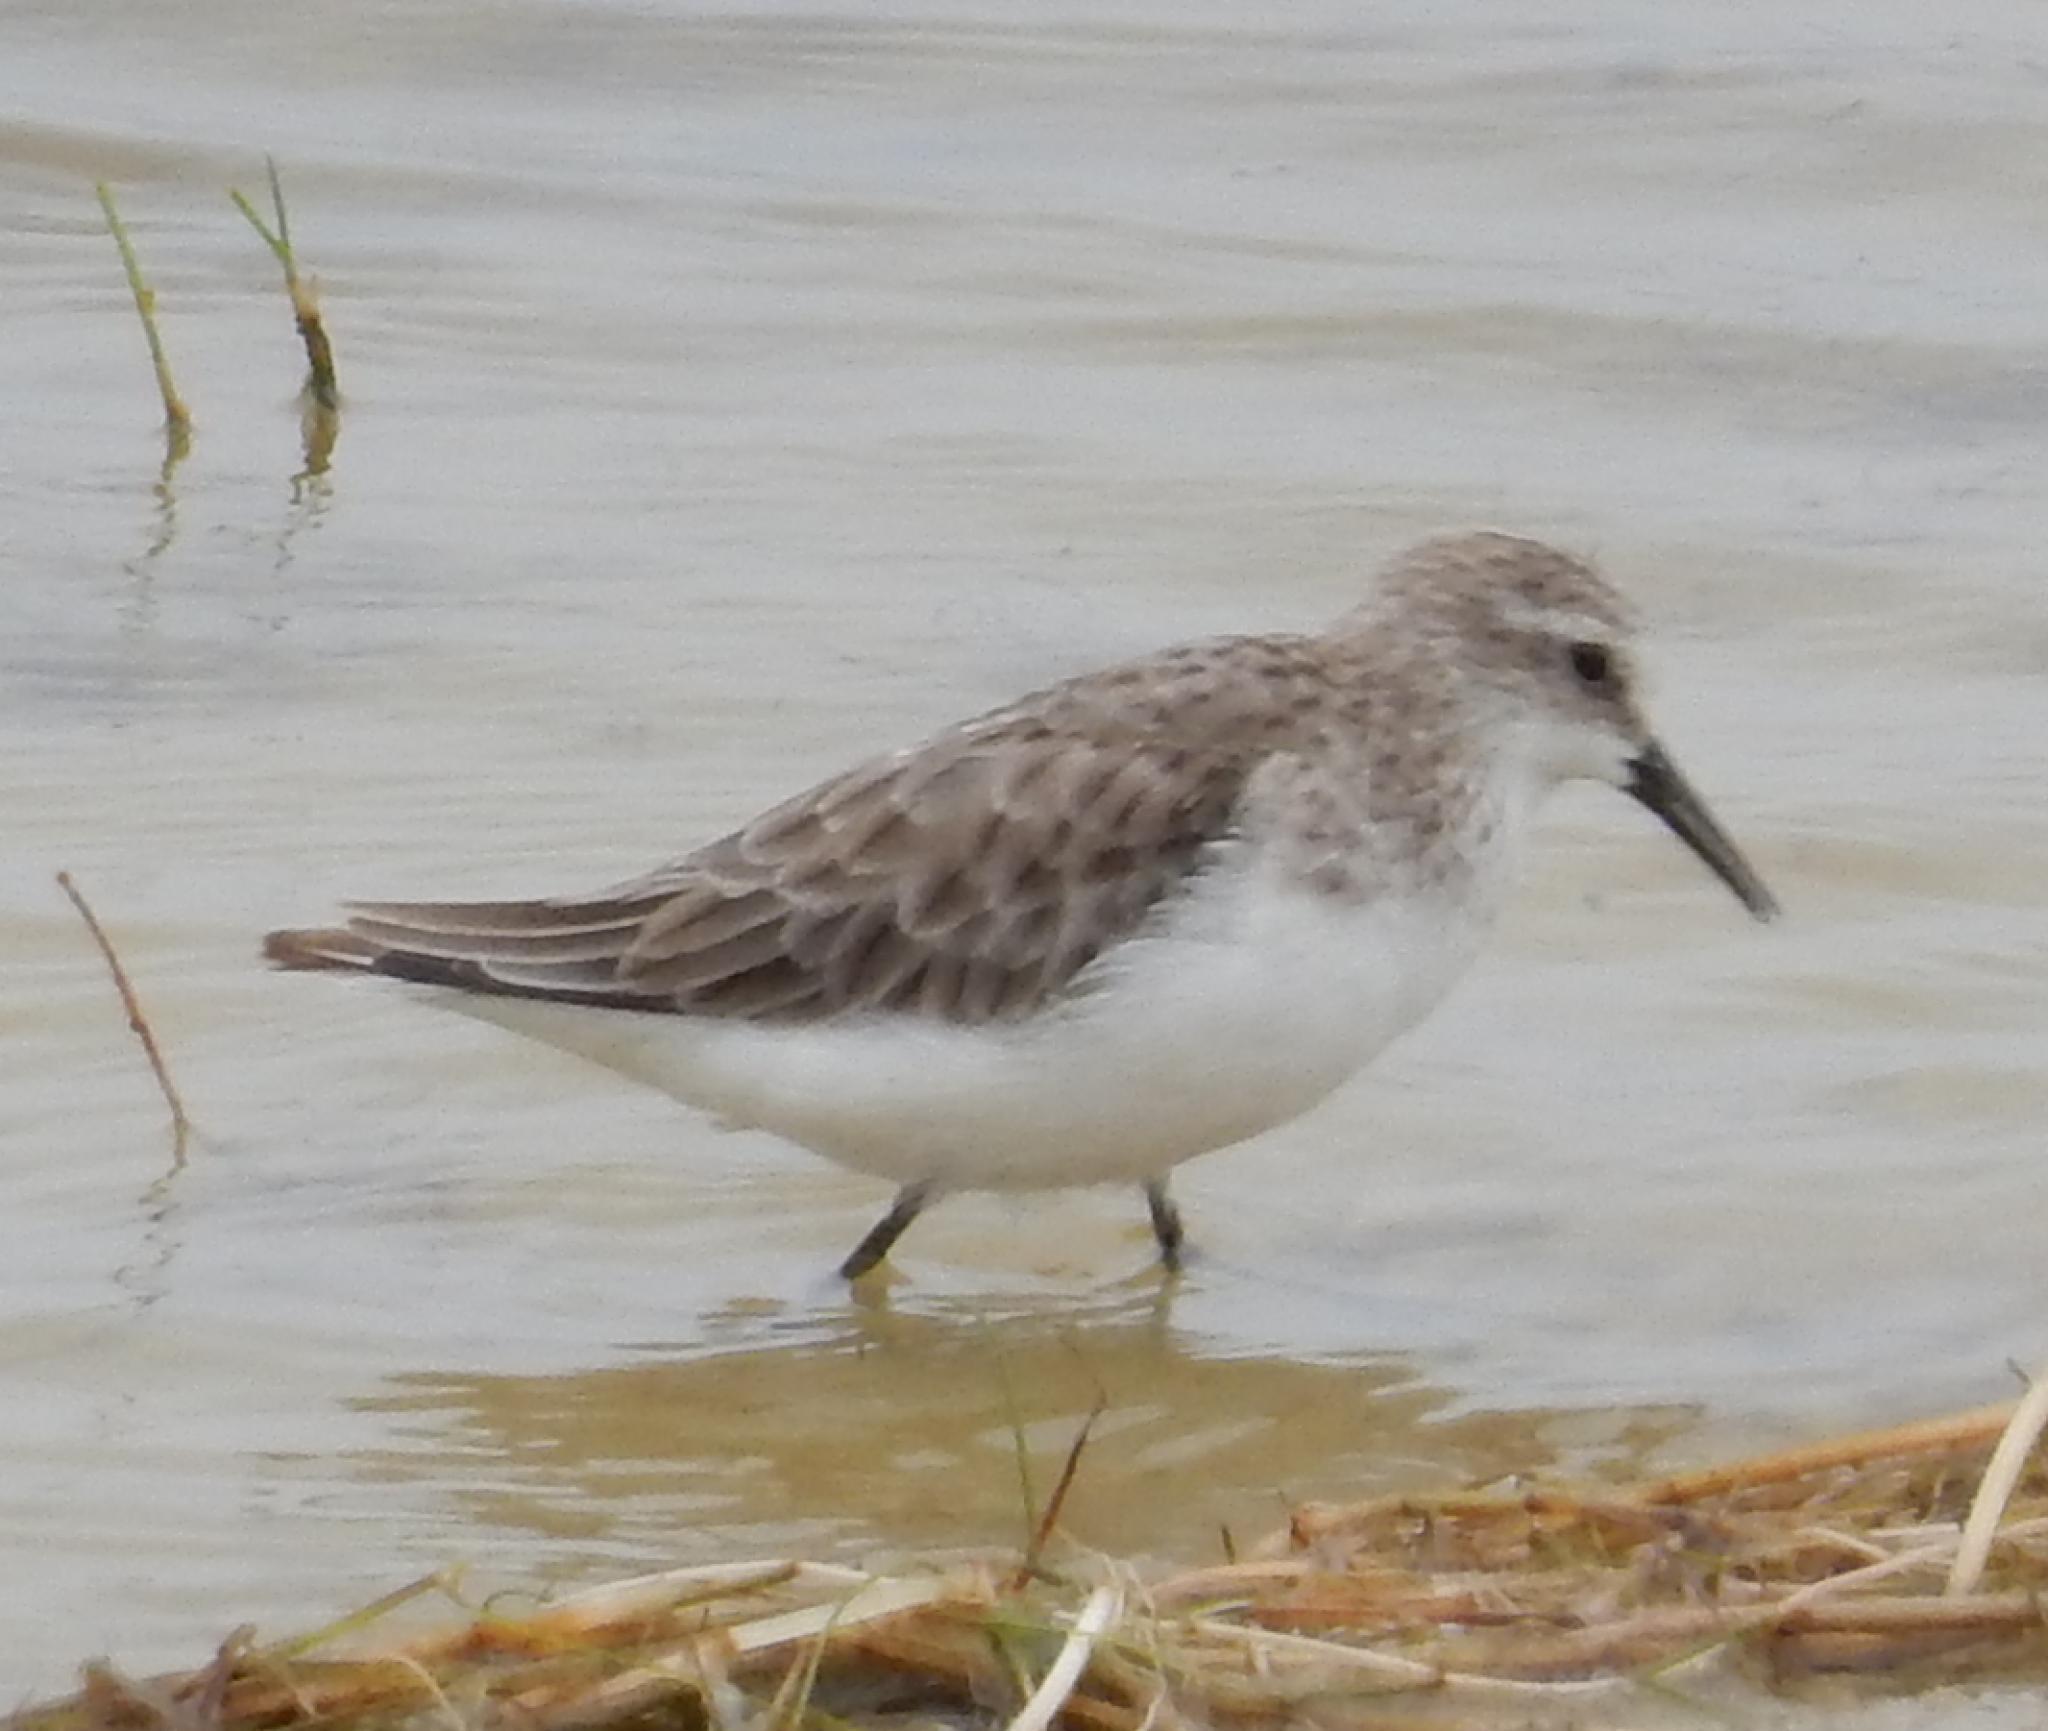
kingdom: Animalia
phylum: Chordata
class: Aves
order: Charadriiformes
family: Scolopacidae
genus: Calidris
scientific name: Calidris minuta
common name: Little stint
